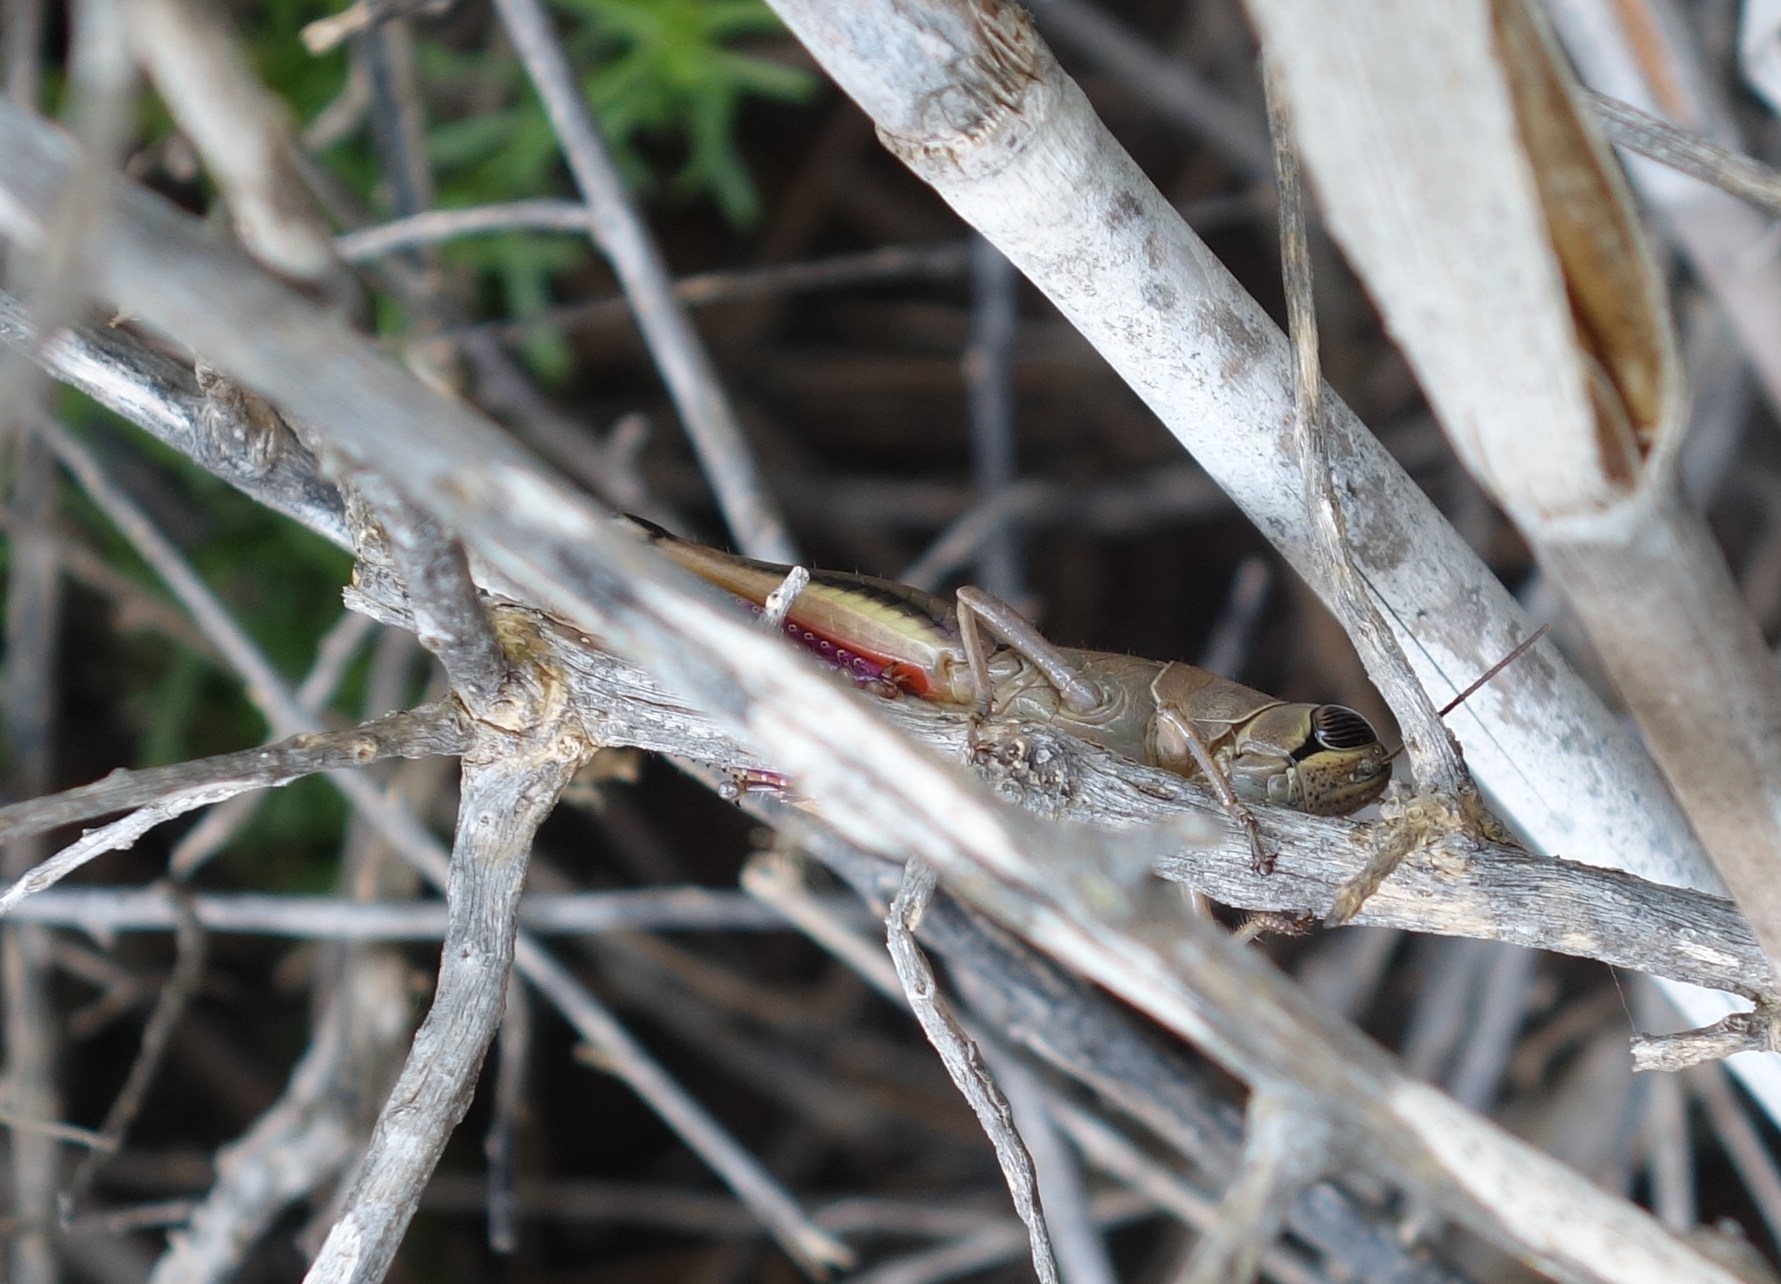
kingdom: Animalia
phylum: Arthropoda
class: Insecta
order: Orthoptera
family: Acrididae
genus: Eyprepocnemis
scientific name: Eyprepocnemis plorans
